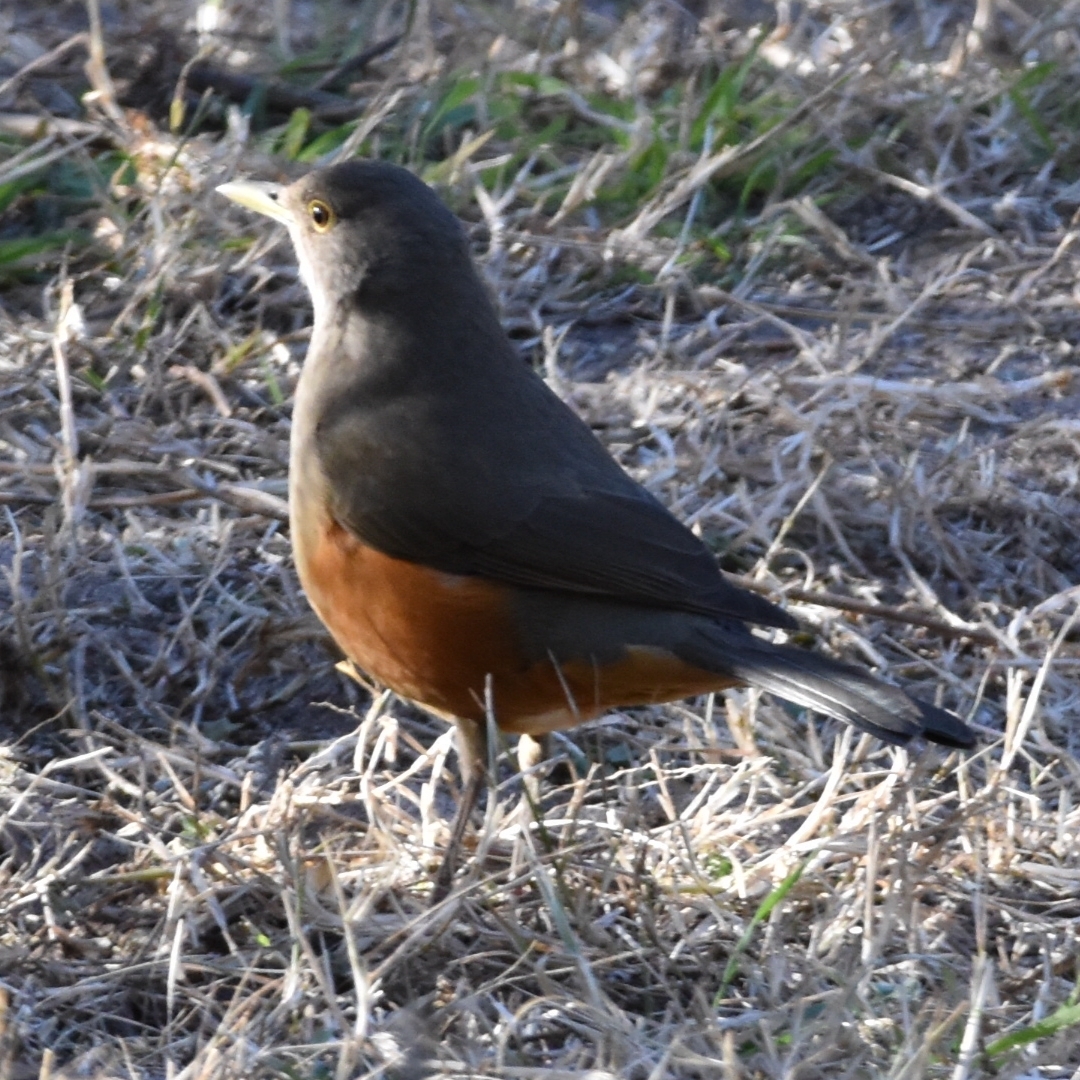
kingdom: Animalia
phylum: Chordata
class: Aves
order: Passeriformes
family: Turdidae
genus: Turdus
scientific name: Turdus rufiventris
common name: Rufous-bellied thrush
